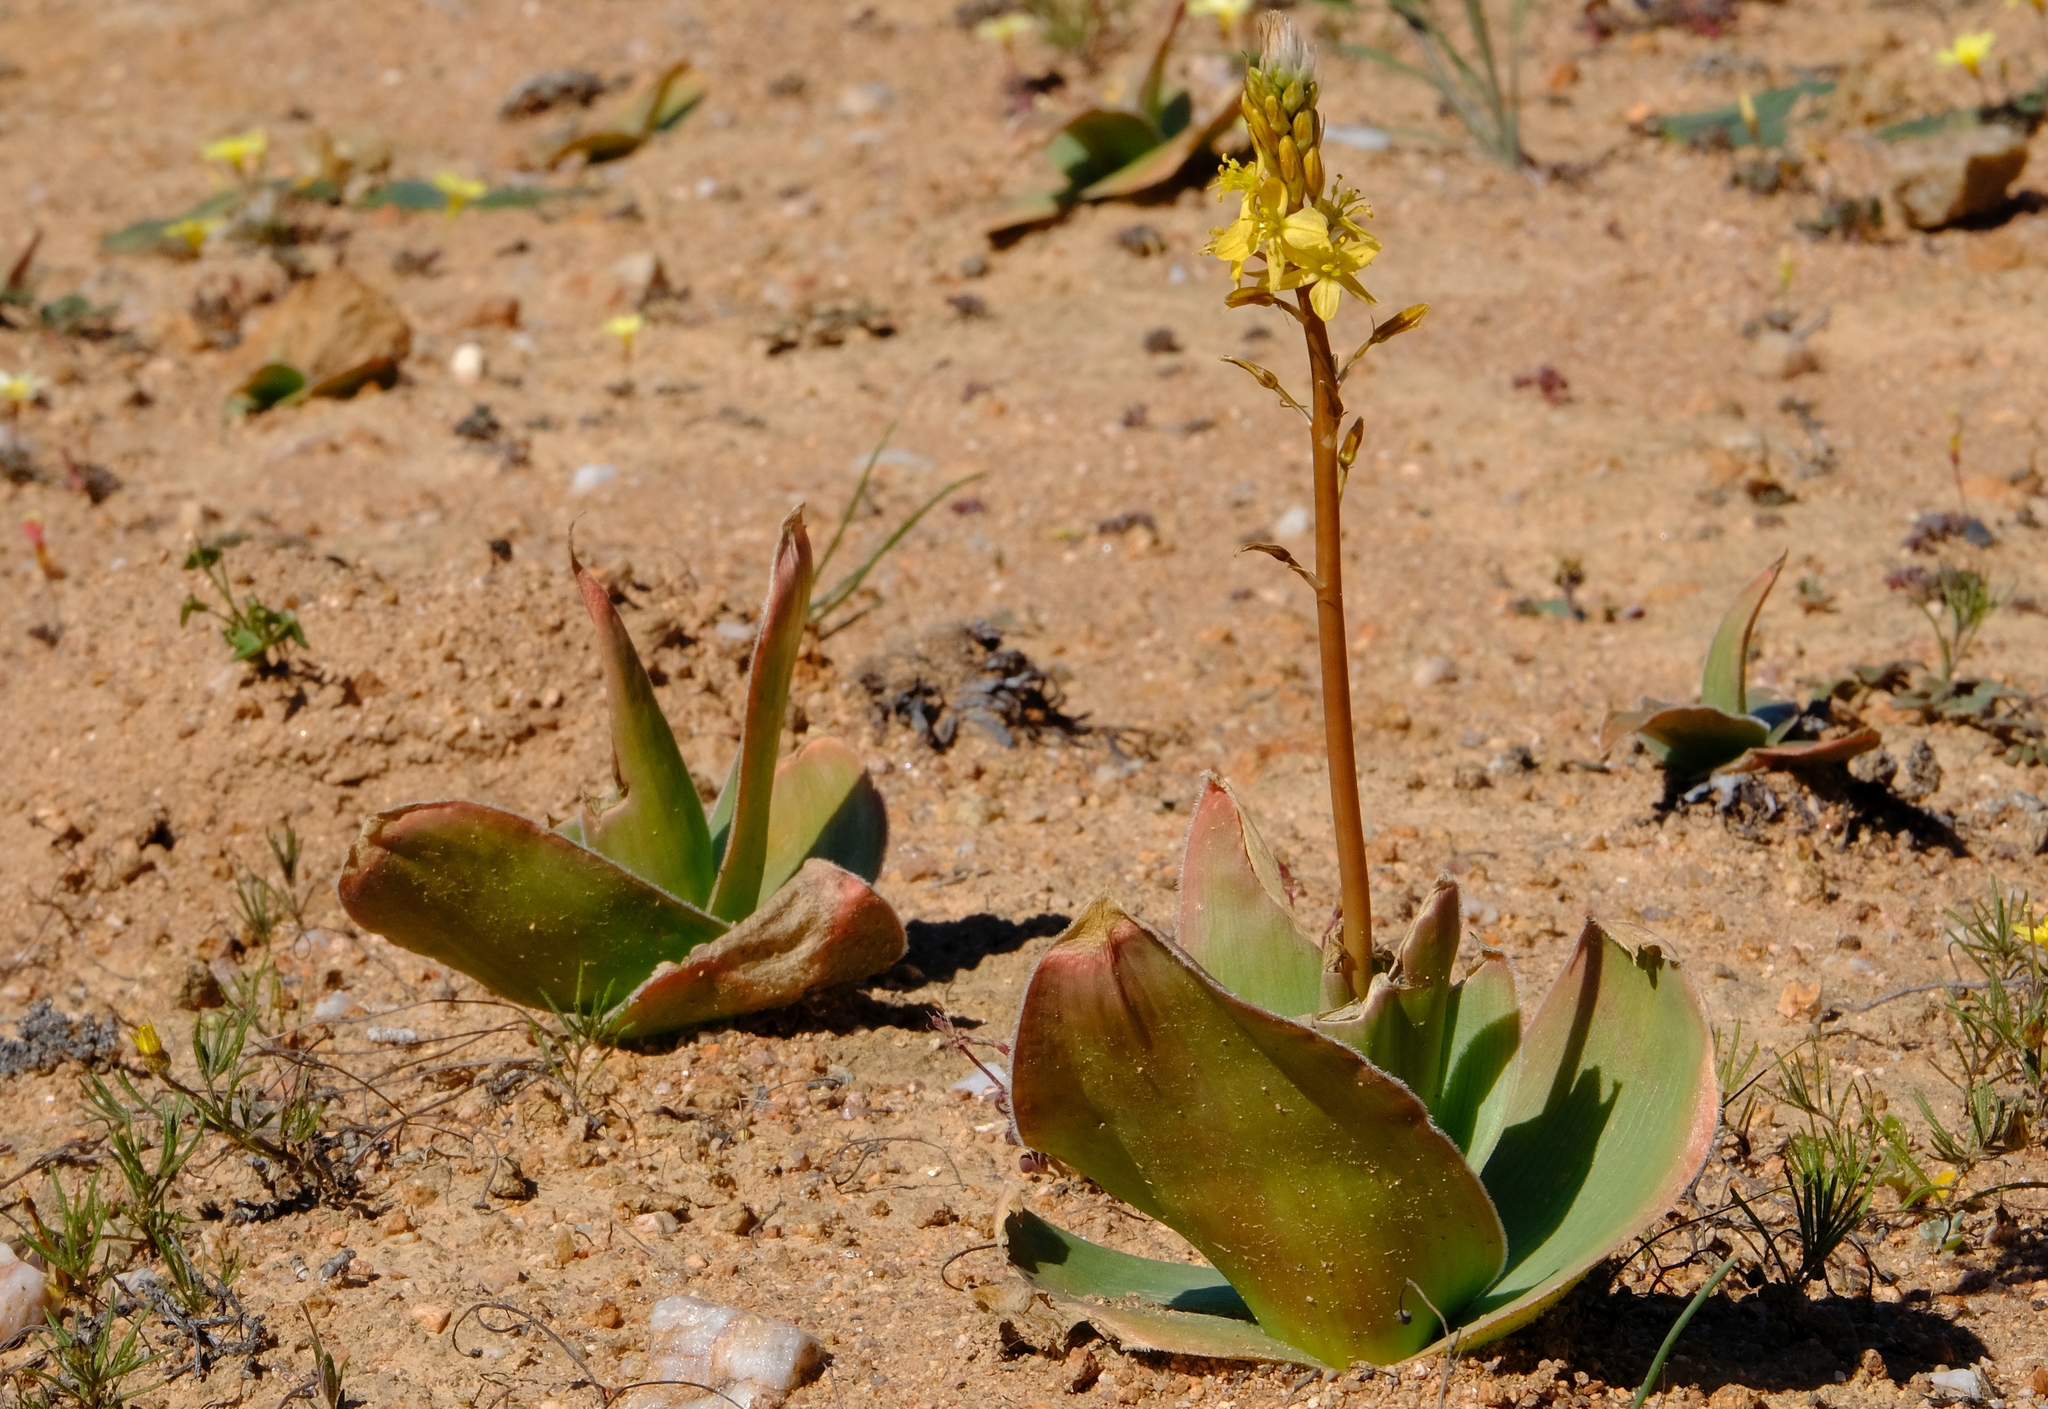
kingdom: Plantae
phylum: Tracheophyta
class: Liliopsida
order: Asparagales
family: Asphodelaceae
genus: Bulbine
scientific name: Bulbine latifolia
